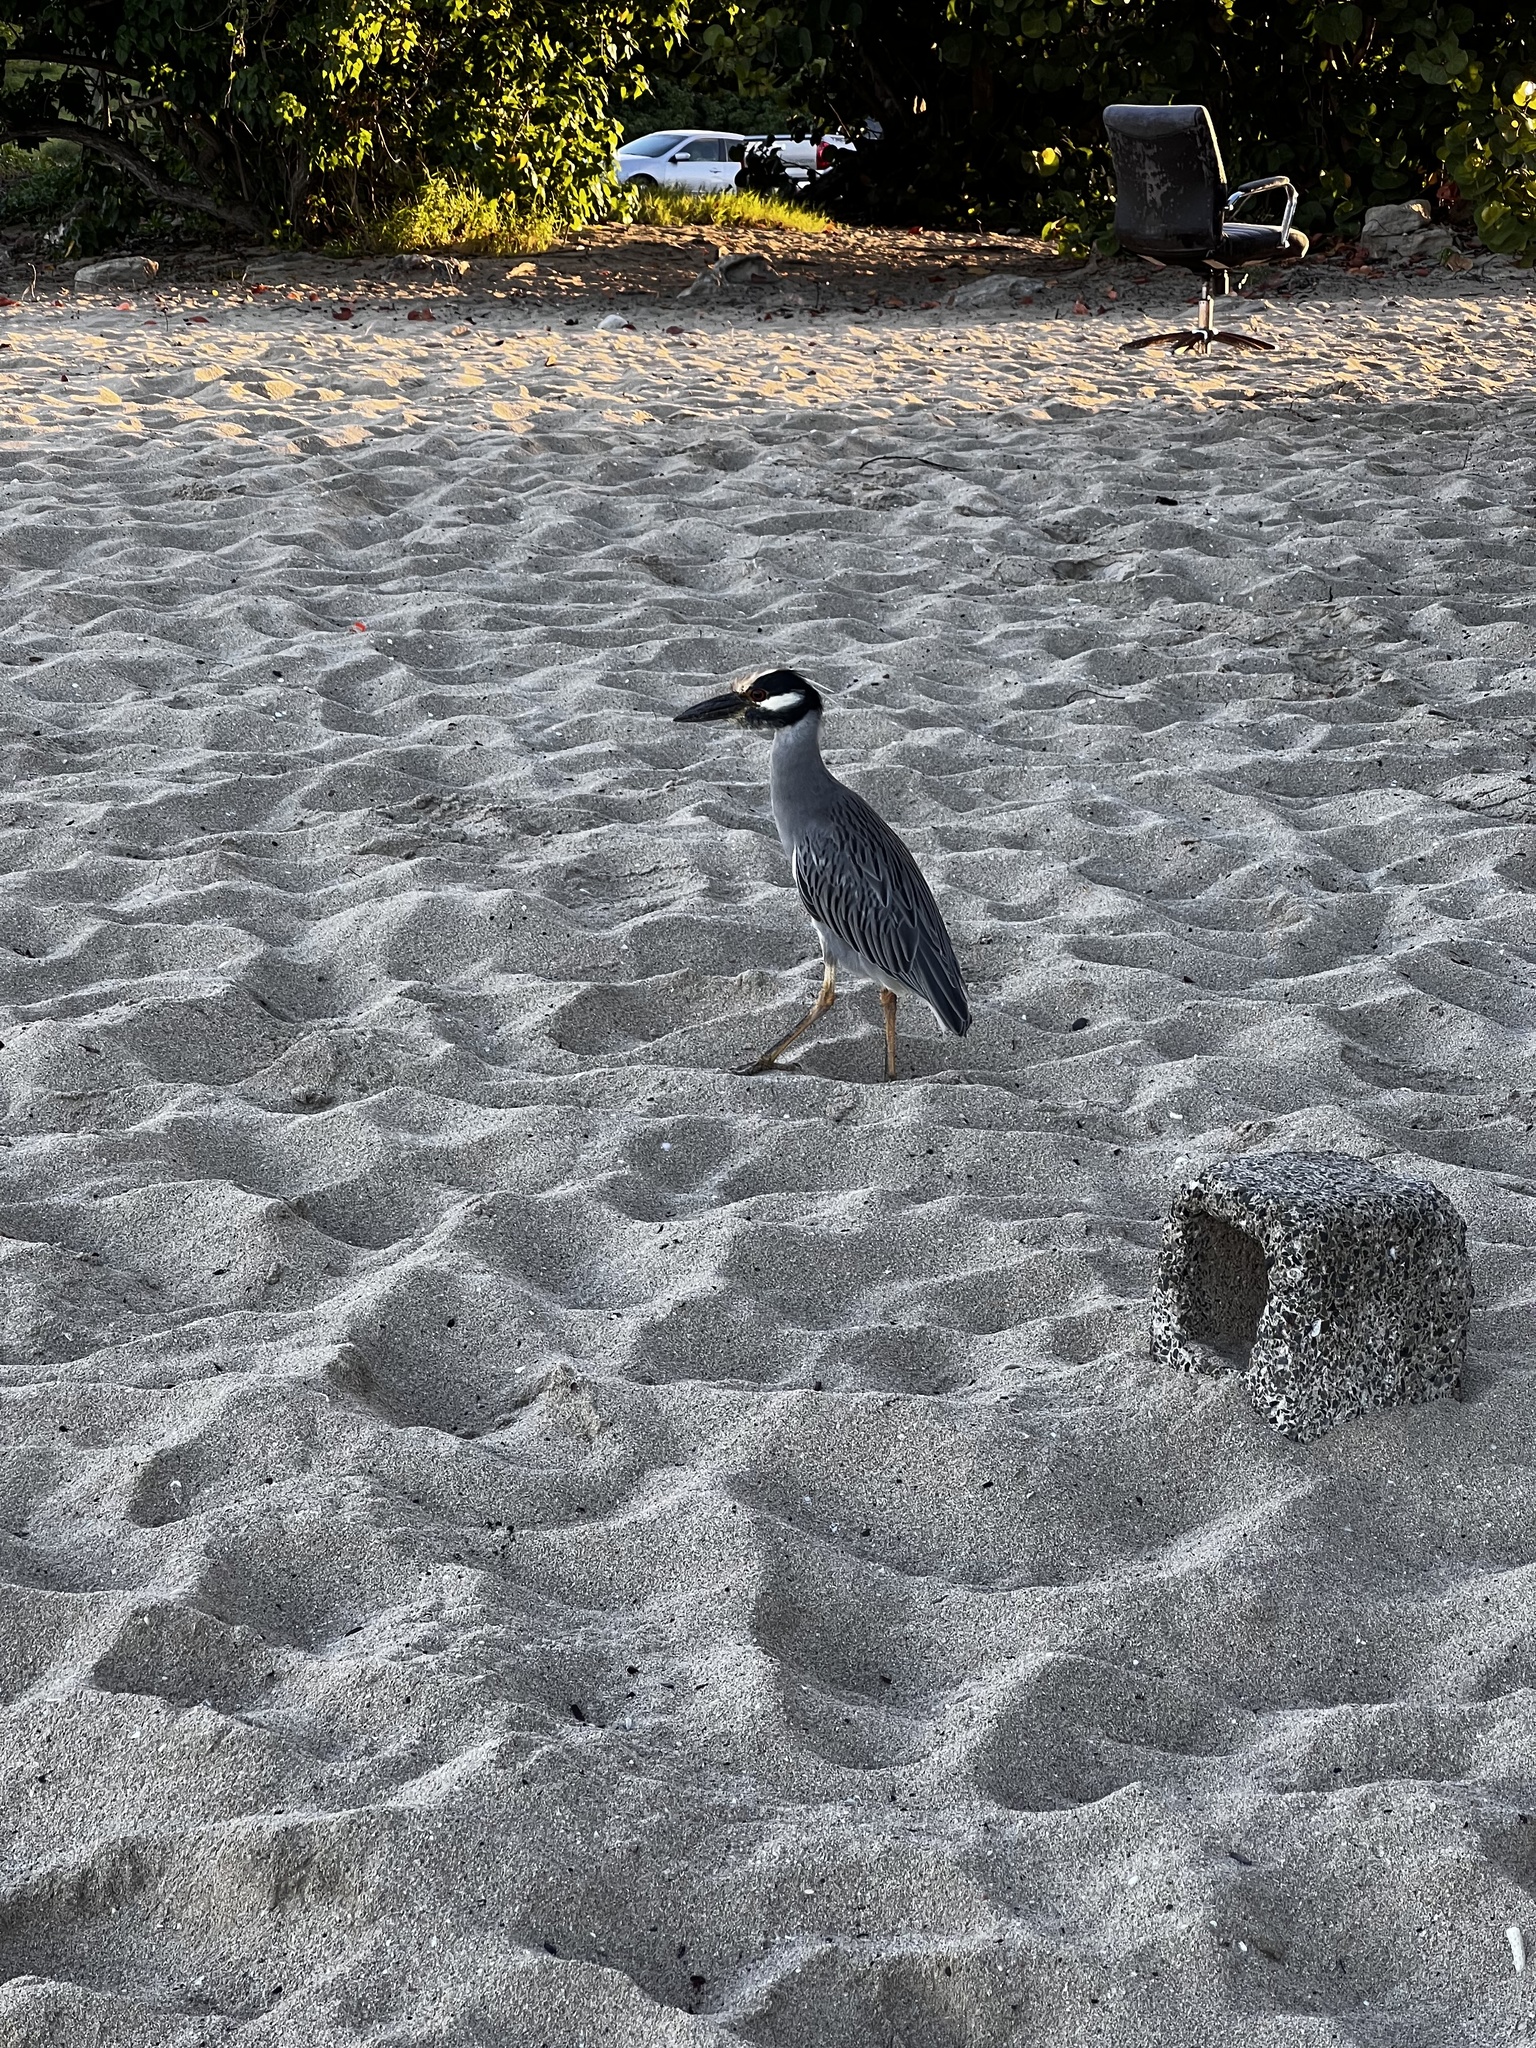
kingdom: Animalia
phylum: Chordata
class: Aves
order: Pelecaniformes
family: Ardeidae
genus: Nyctanassa
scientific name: Nyctanassa violacea
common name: Yellow-crowned night heron
